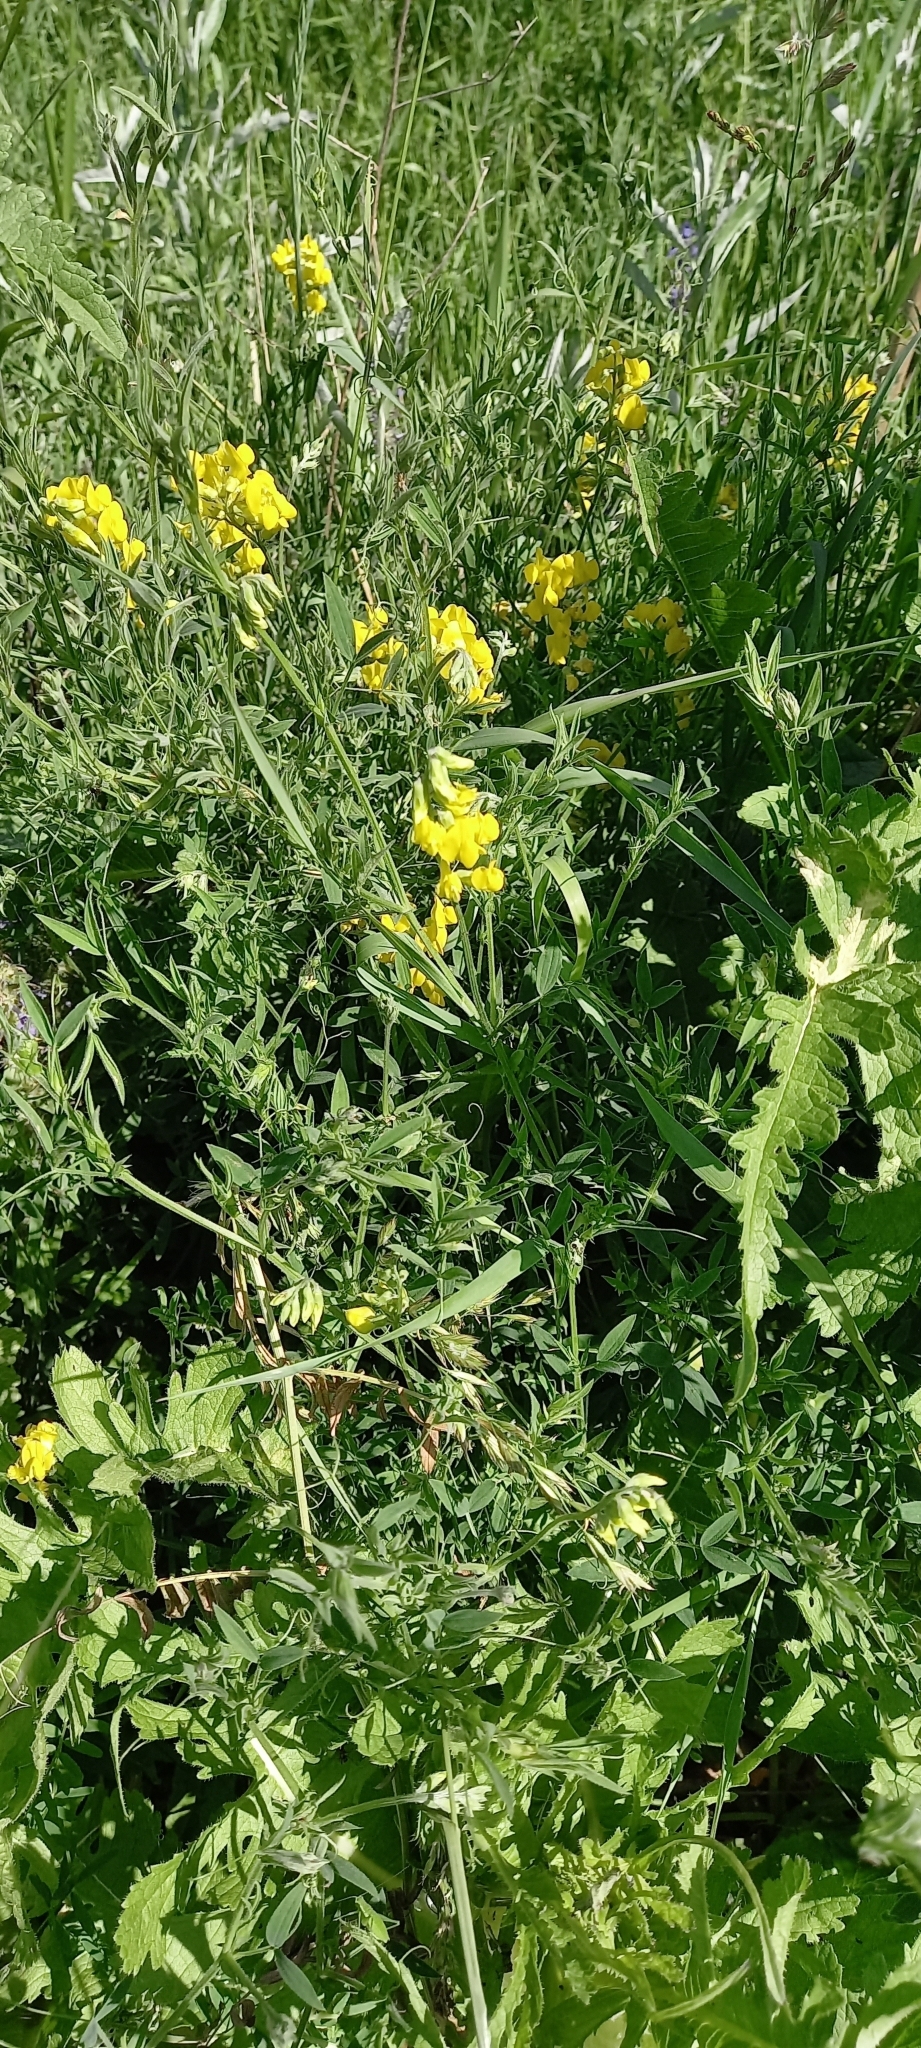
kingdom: Plantae
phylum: Tracheophyta
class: Magnoliopsida
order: Fabales
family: Fabaceae
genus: Lathyrus
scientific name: Lathyrus pratensis
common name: Meadow vetchling
